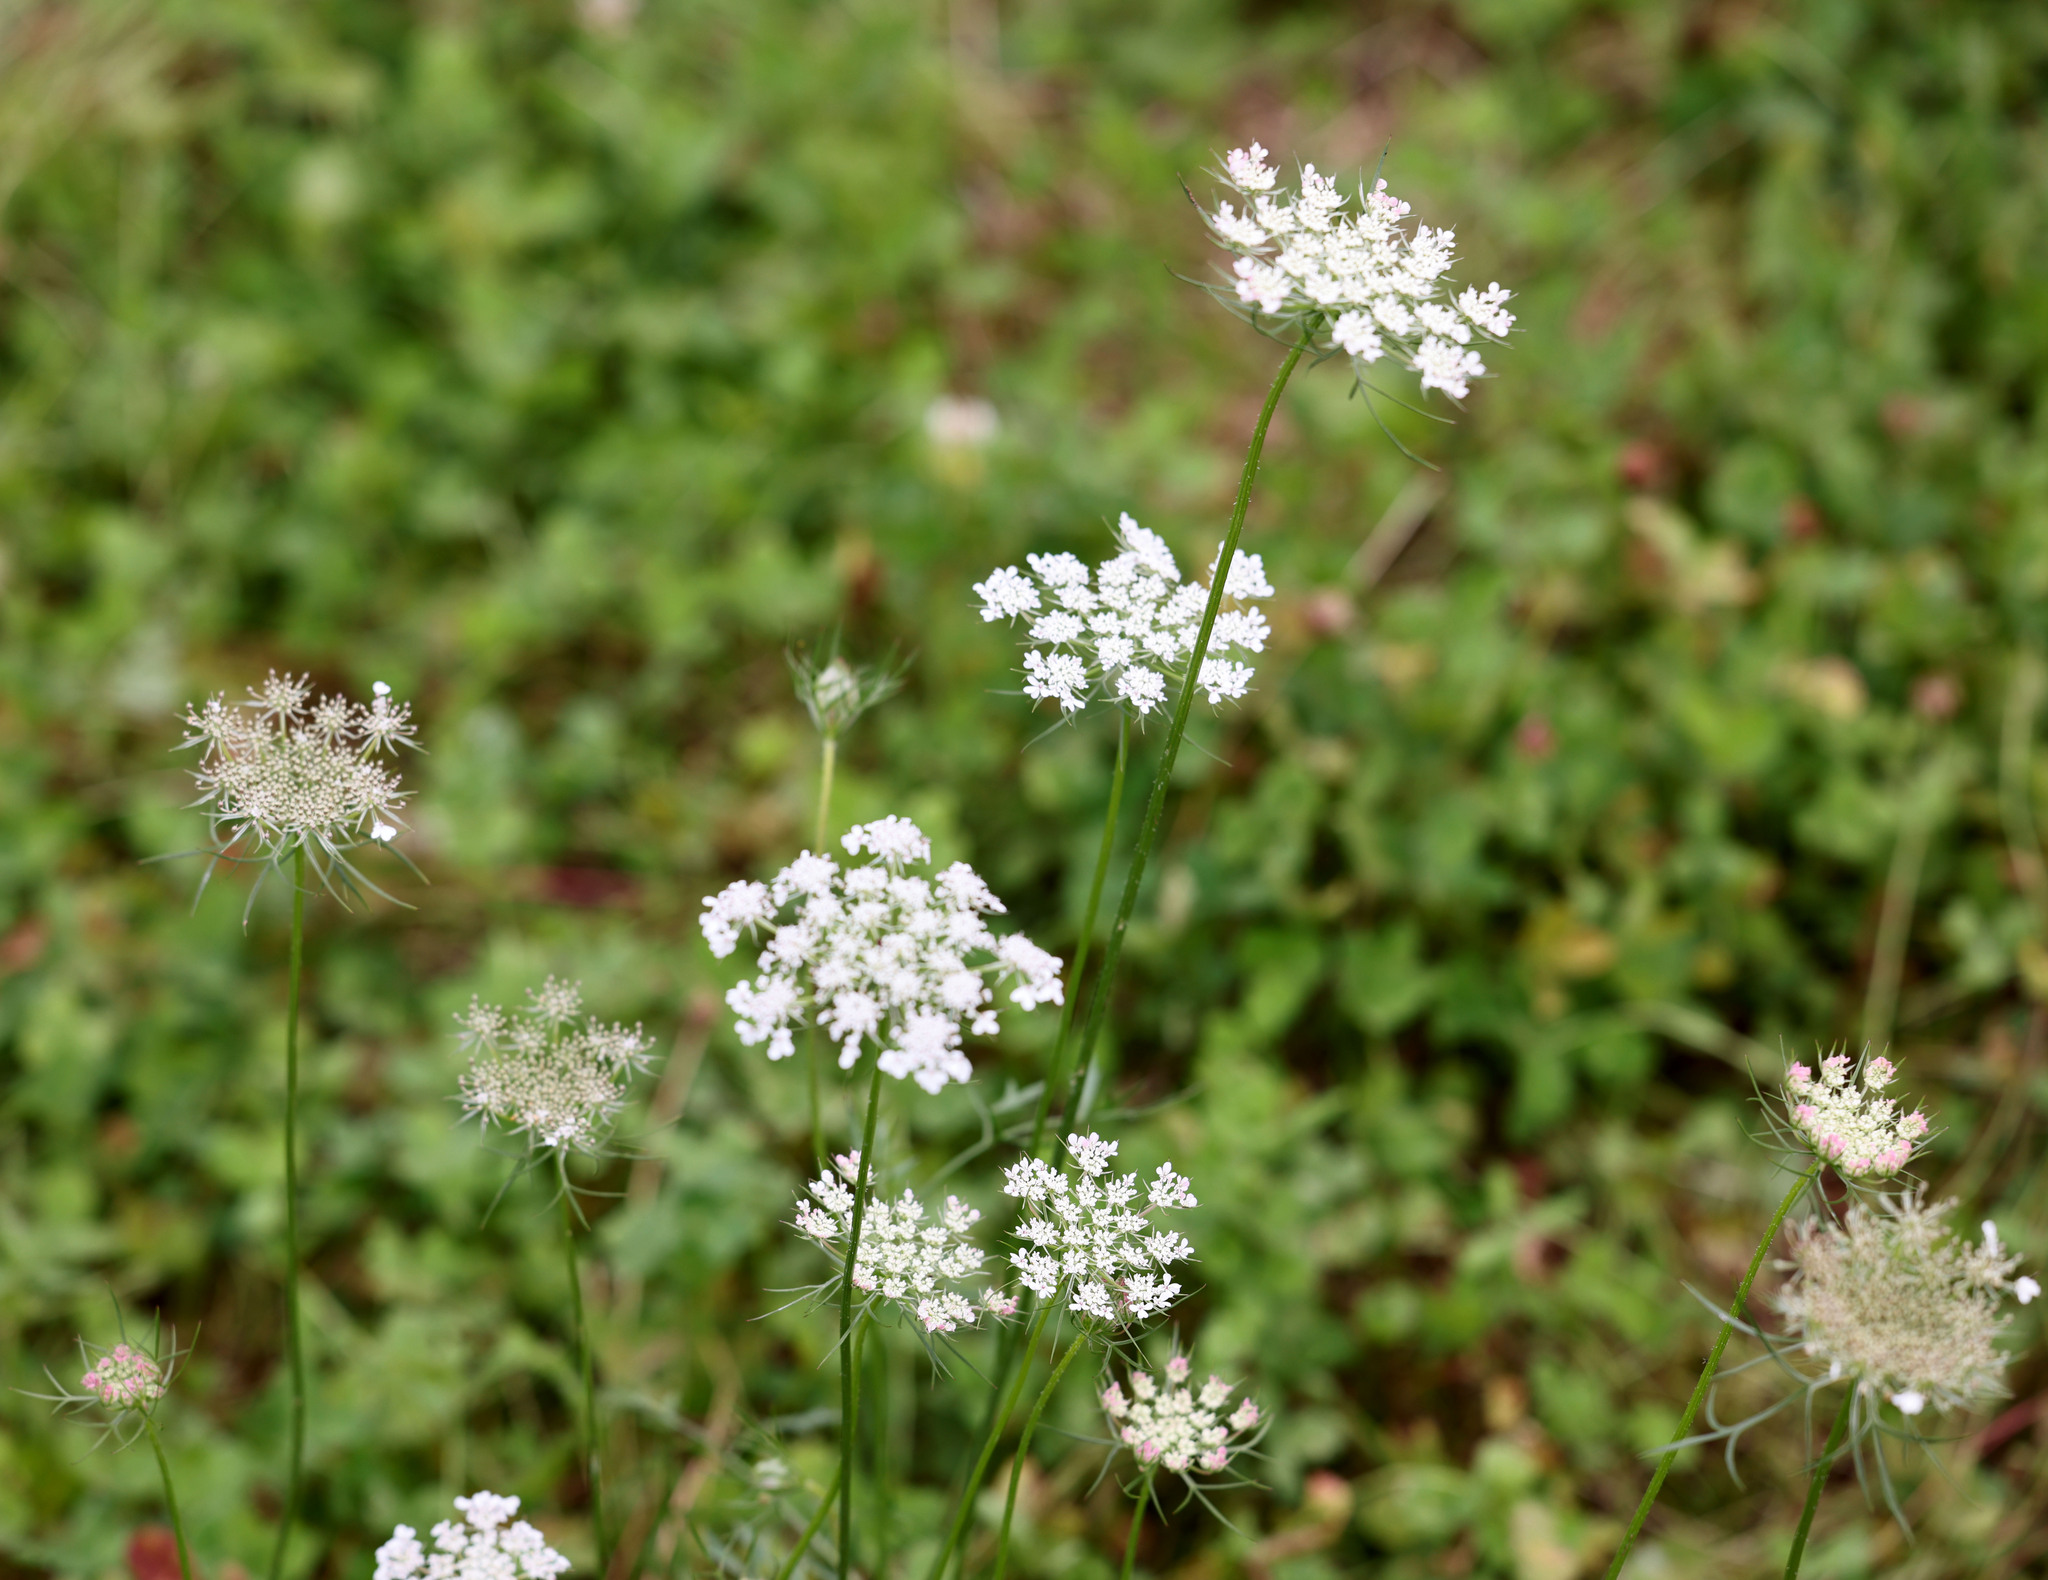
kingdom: Plantae
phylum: Tracheophyta
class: Magnoliopsida
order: Apiales
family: Apiaceae
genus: Daucus
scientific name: Daucus carota
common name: Wild carrot
